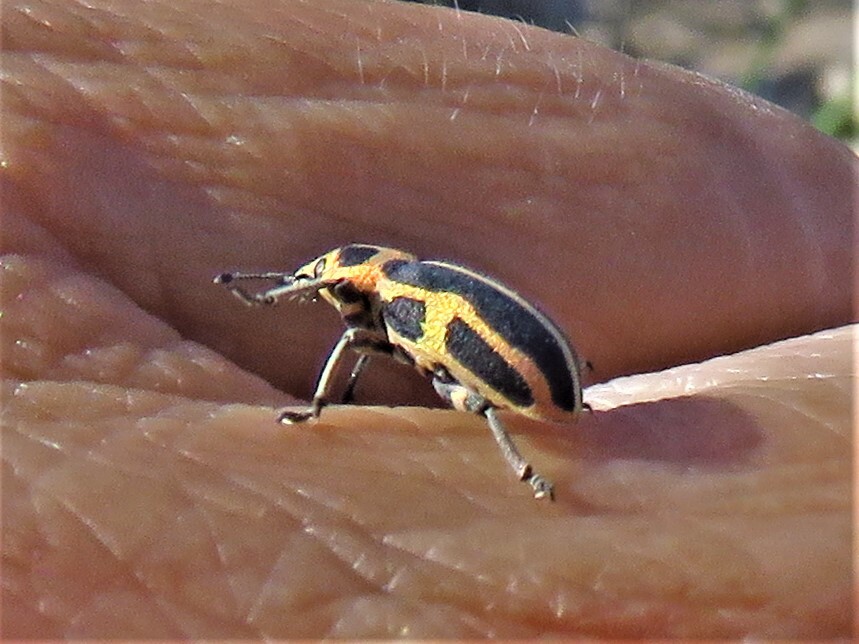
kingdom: Animalia
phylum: Arthropoda
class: Insecta
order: Coleoptera
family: Curculionidae
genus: Eudiagogus
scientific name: Eudiagogus pulcher
